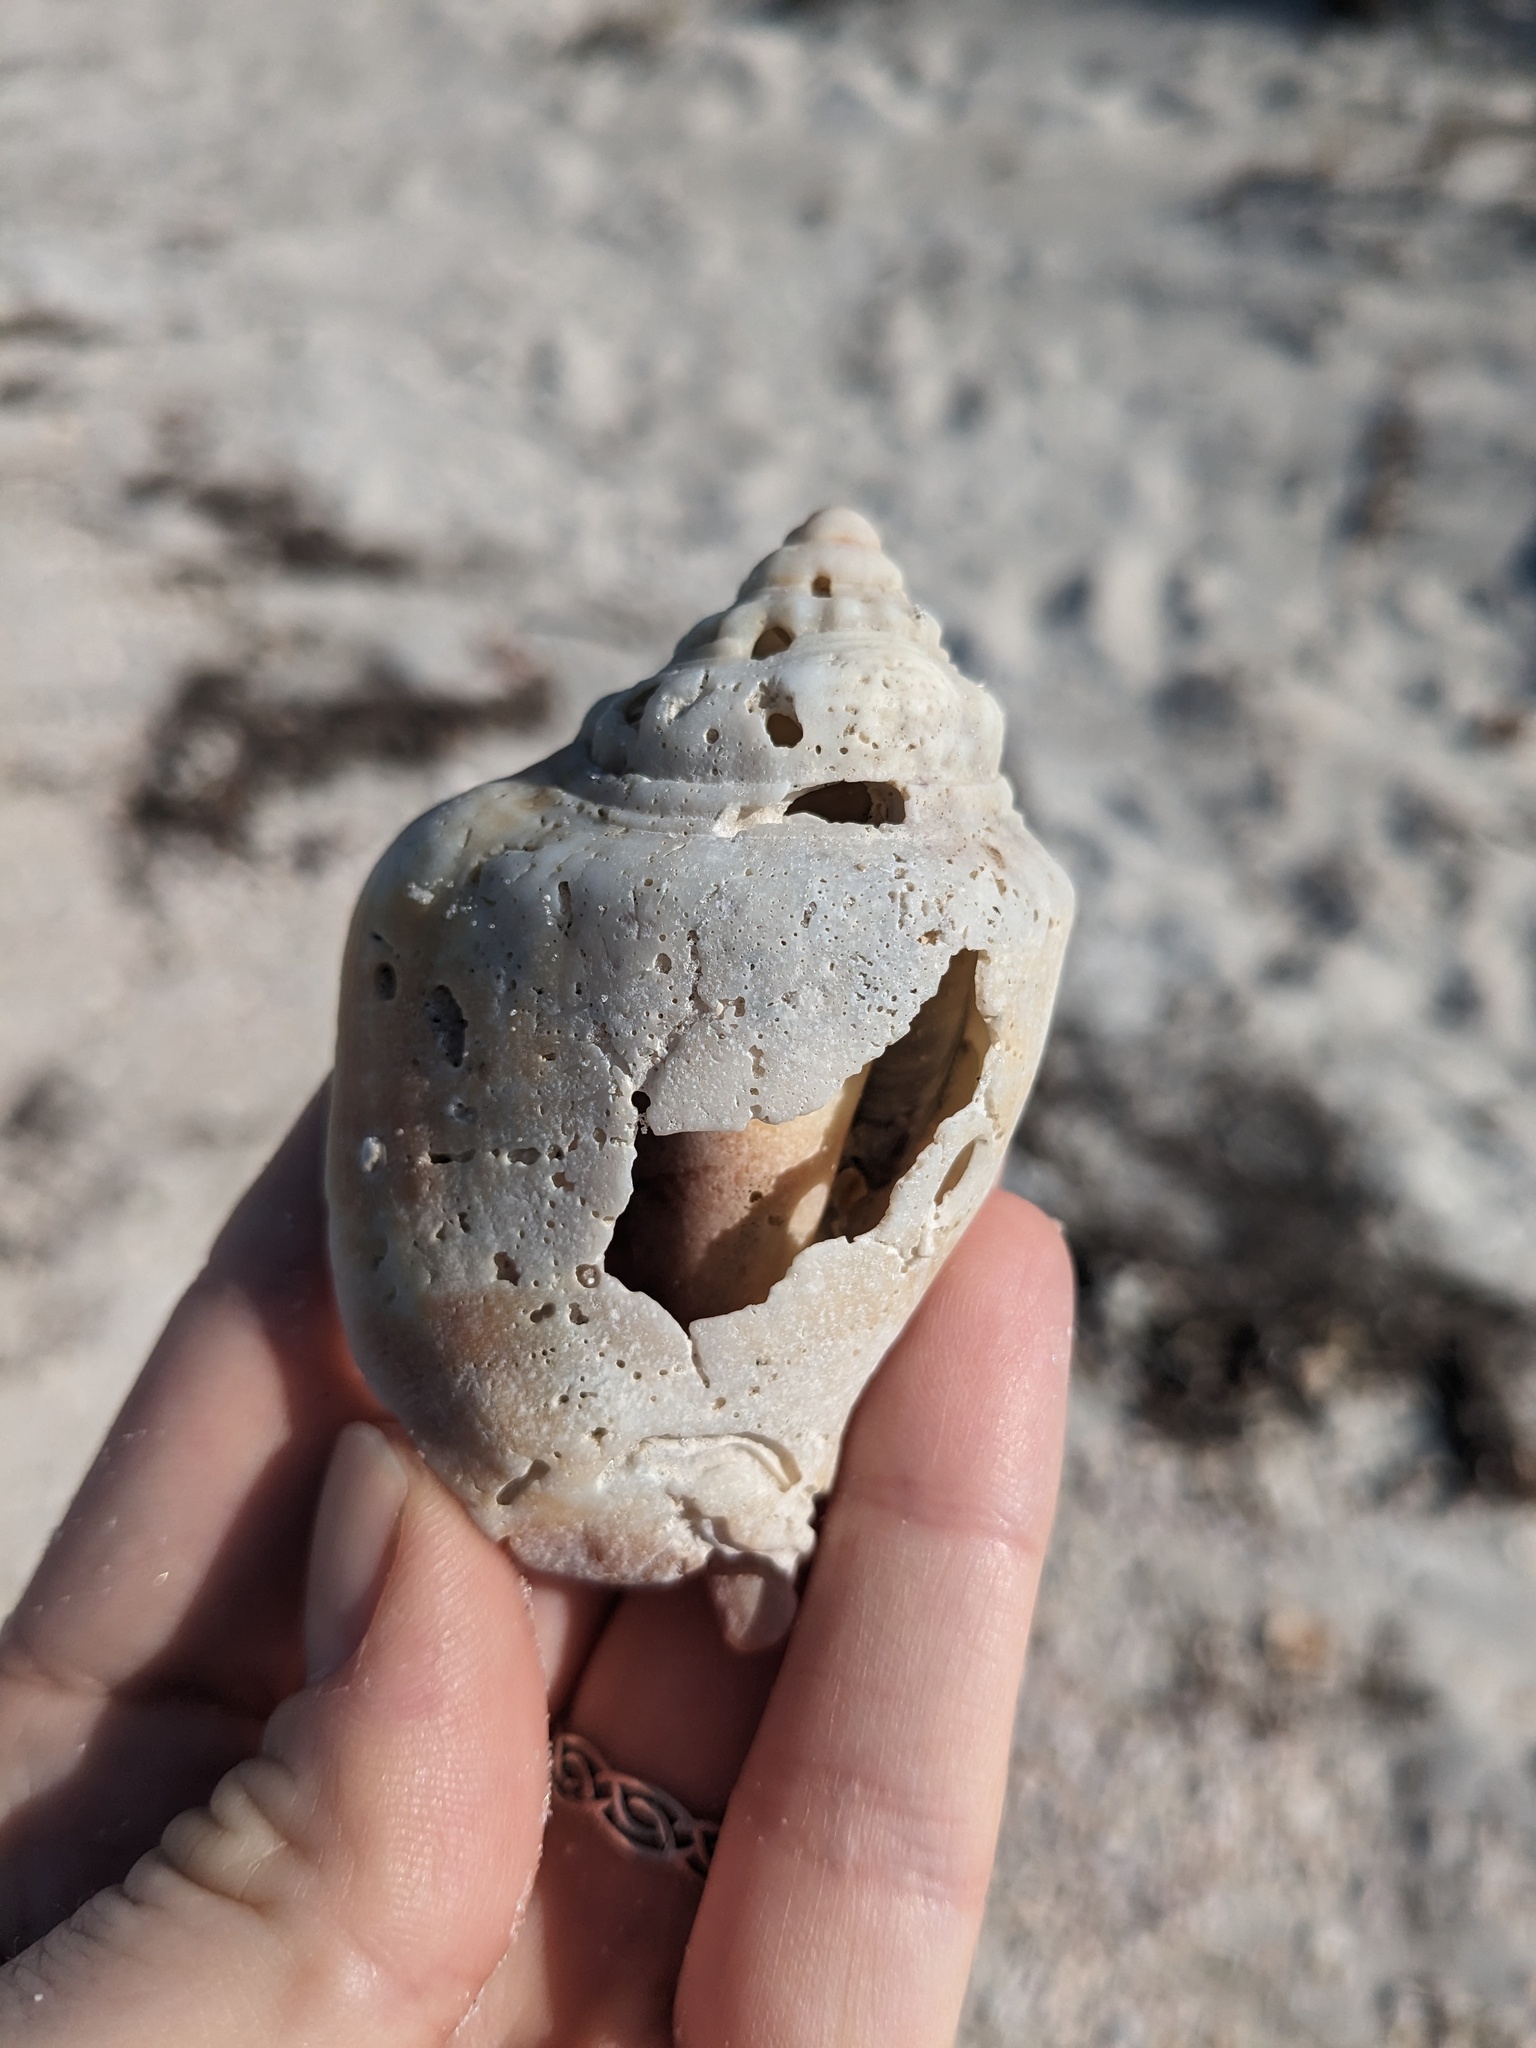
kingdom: Animalia
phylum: Mollusca
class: Gastropoda
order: Littorinimorpha
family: Strombidae
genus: Strombus
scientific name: Strombus alatus
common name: Florida fighting conch
